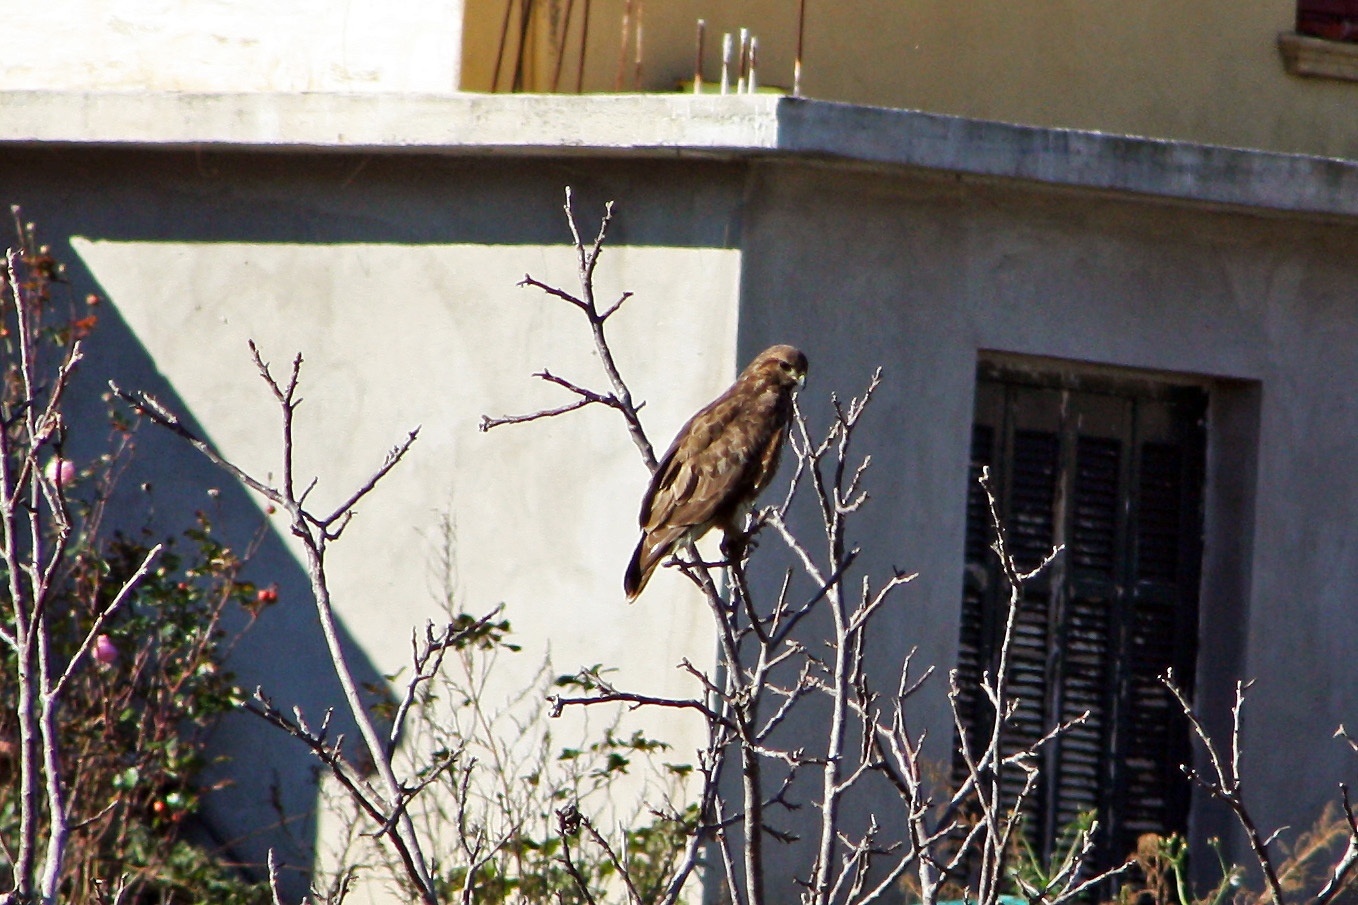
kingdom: Animalia
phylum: Chordata
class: Aves
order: Accipitriformes
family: Accipitridae
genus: Buteo
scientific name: Buteo buteo
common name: Common buzzard
